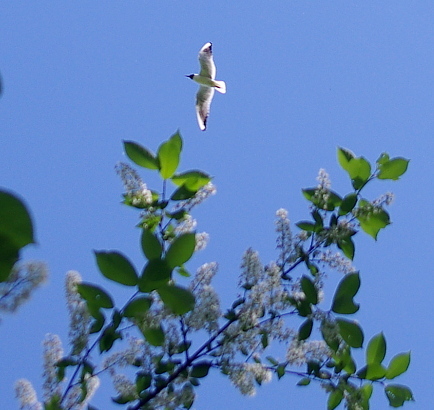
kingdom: Plantae
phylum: Tracheophyta
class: Magnoliopsida
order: Rosales
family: Rosaceae
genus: Prunus
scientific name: Prunus padus
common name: Bird cherry
